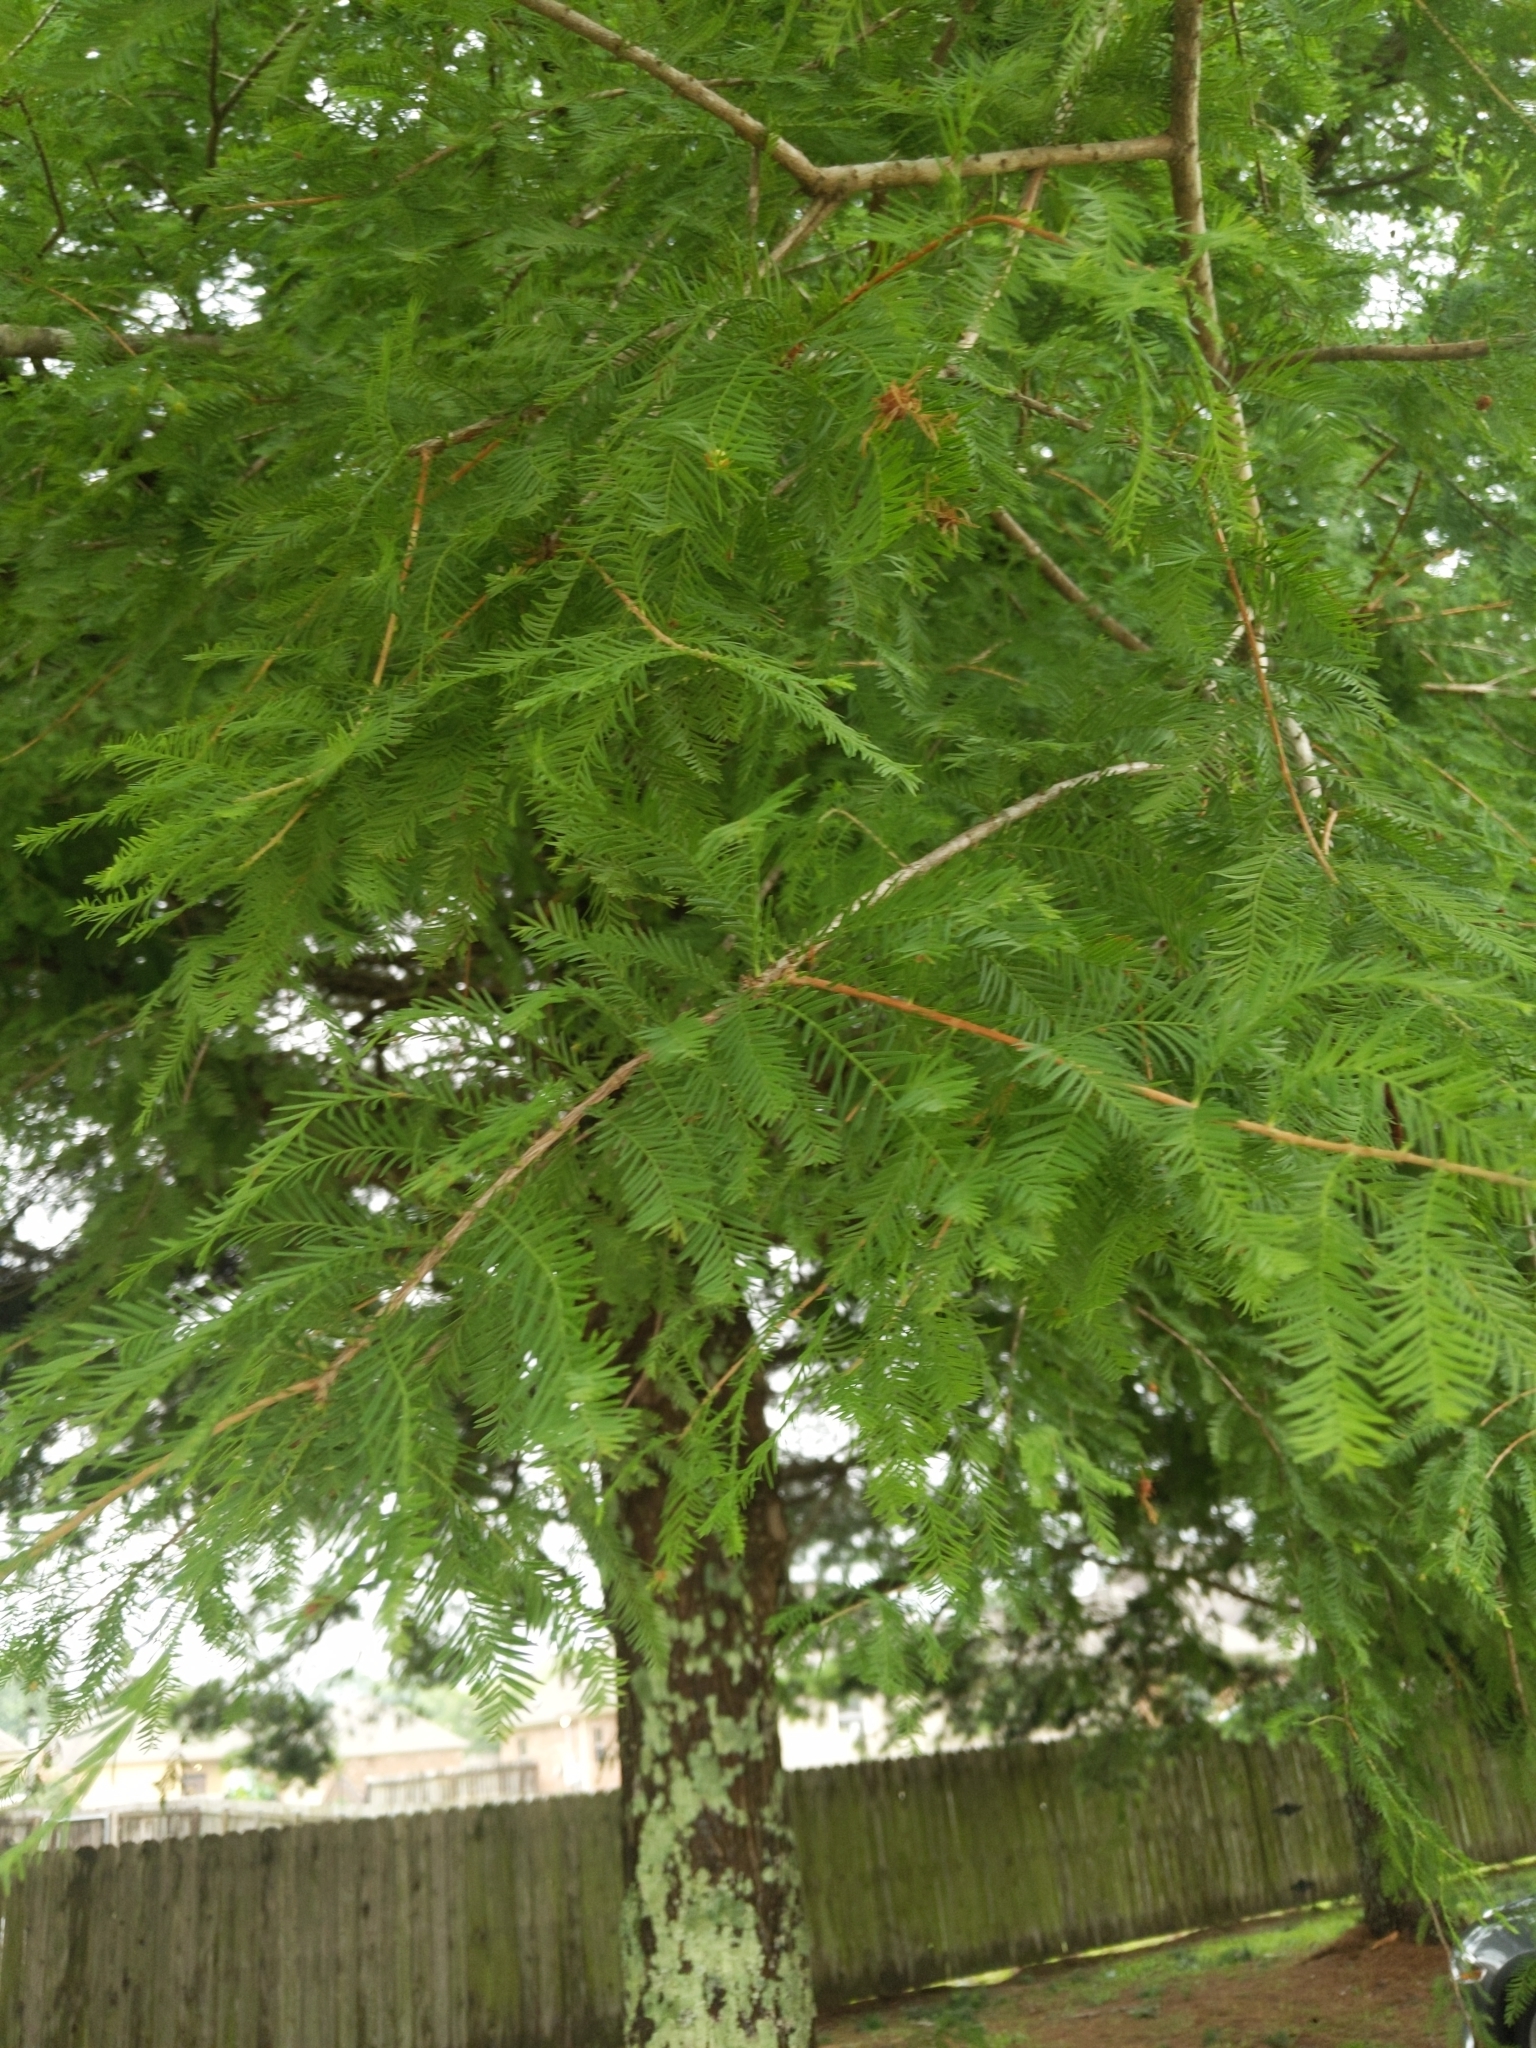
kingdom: Plantae
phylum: Tracheophyta
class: Pinopsida
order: Pinales
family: Cupressaceae
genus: Taxodium
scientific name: Taxodium distichum
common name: Bald cypress
